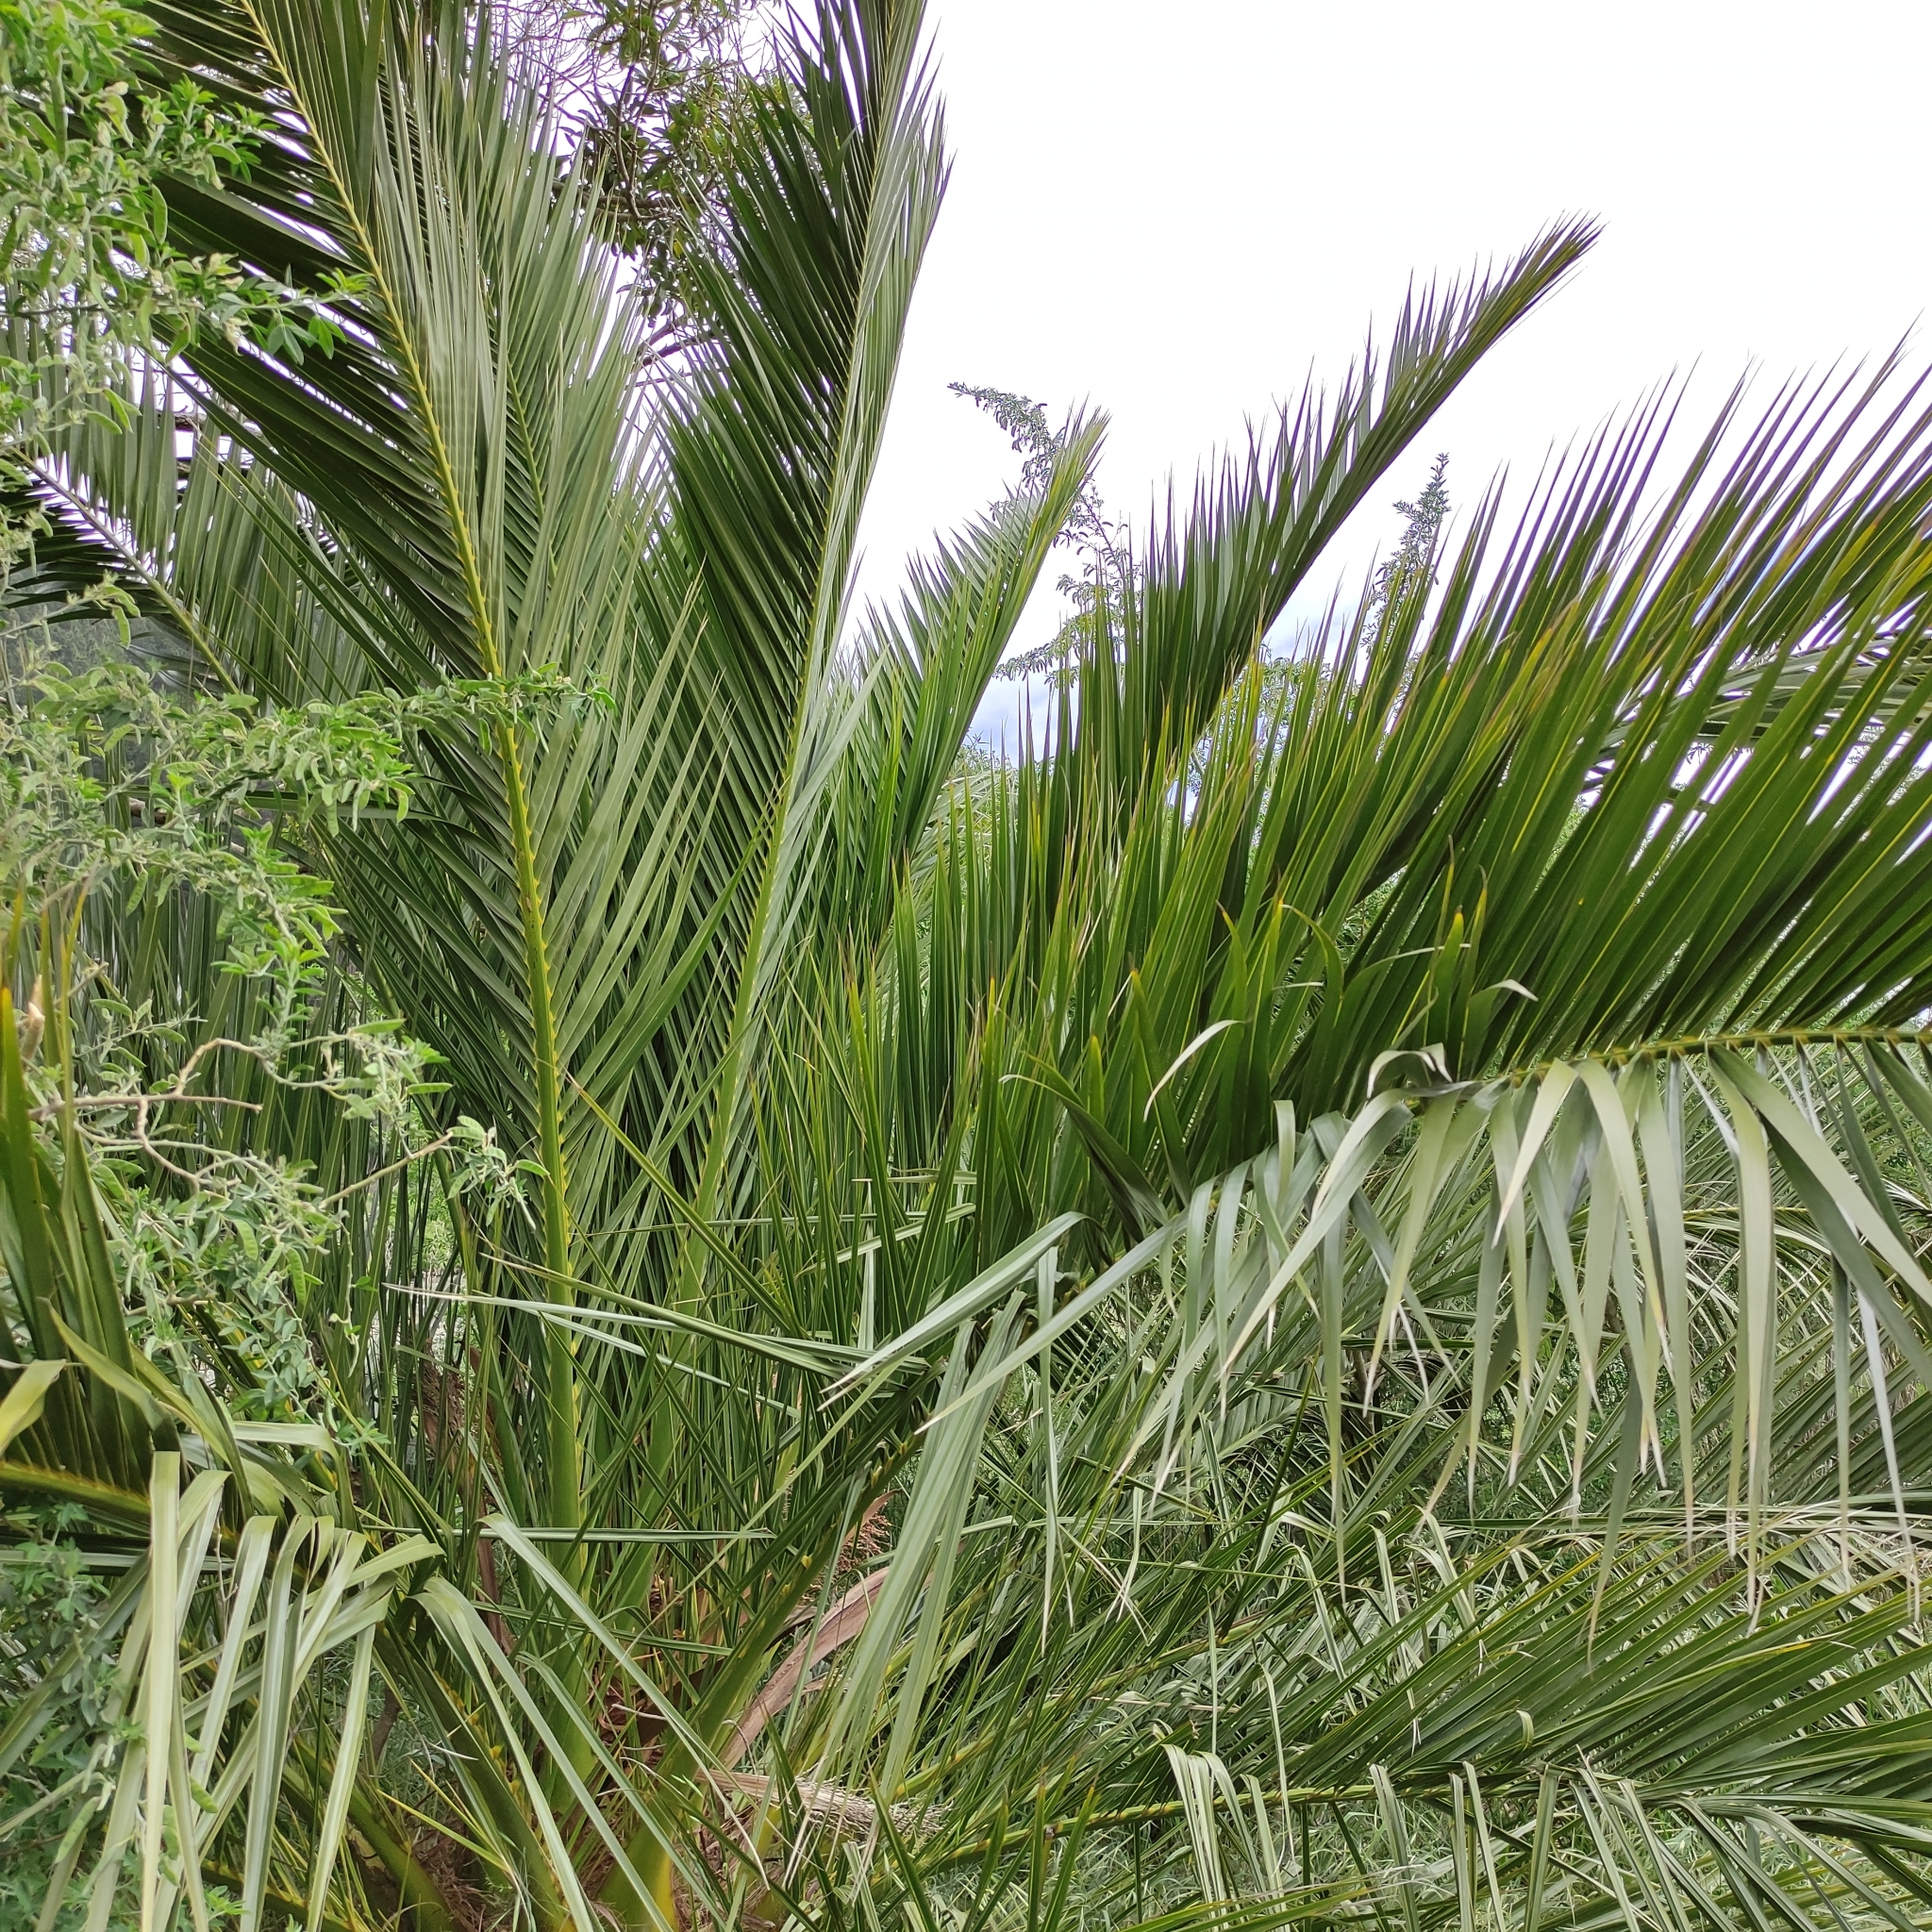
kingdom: Plantae
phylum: Tracheophyta
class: Liliopsida
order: Arecales
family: Arecaceae
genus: Phoenix
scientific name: Phoenix canariensis
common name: Canary island date palm
